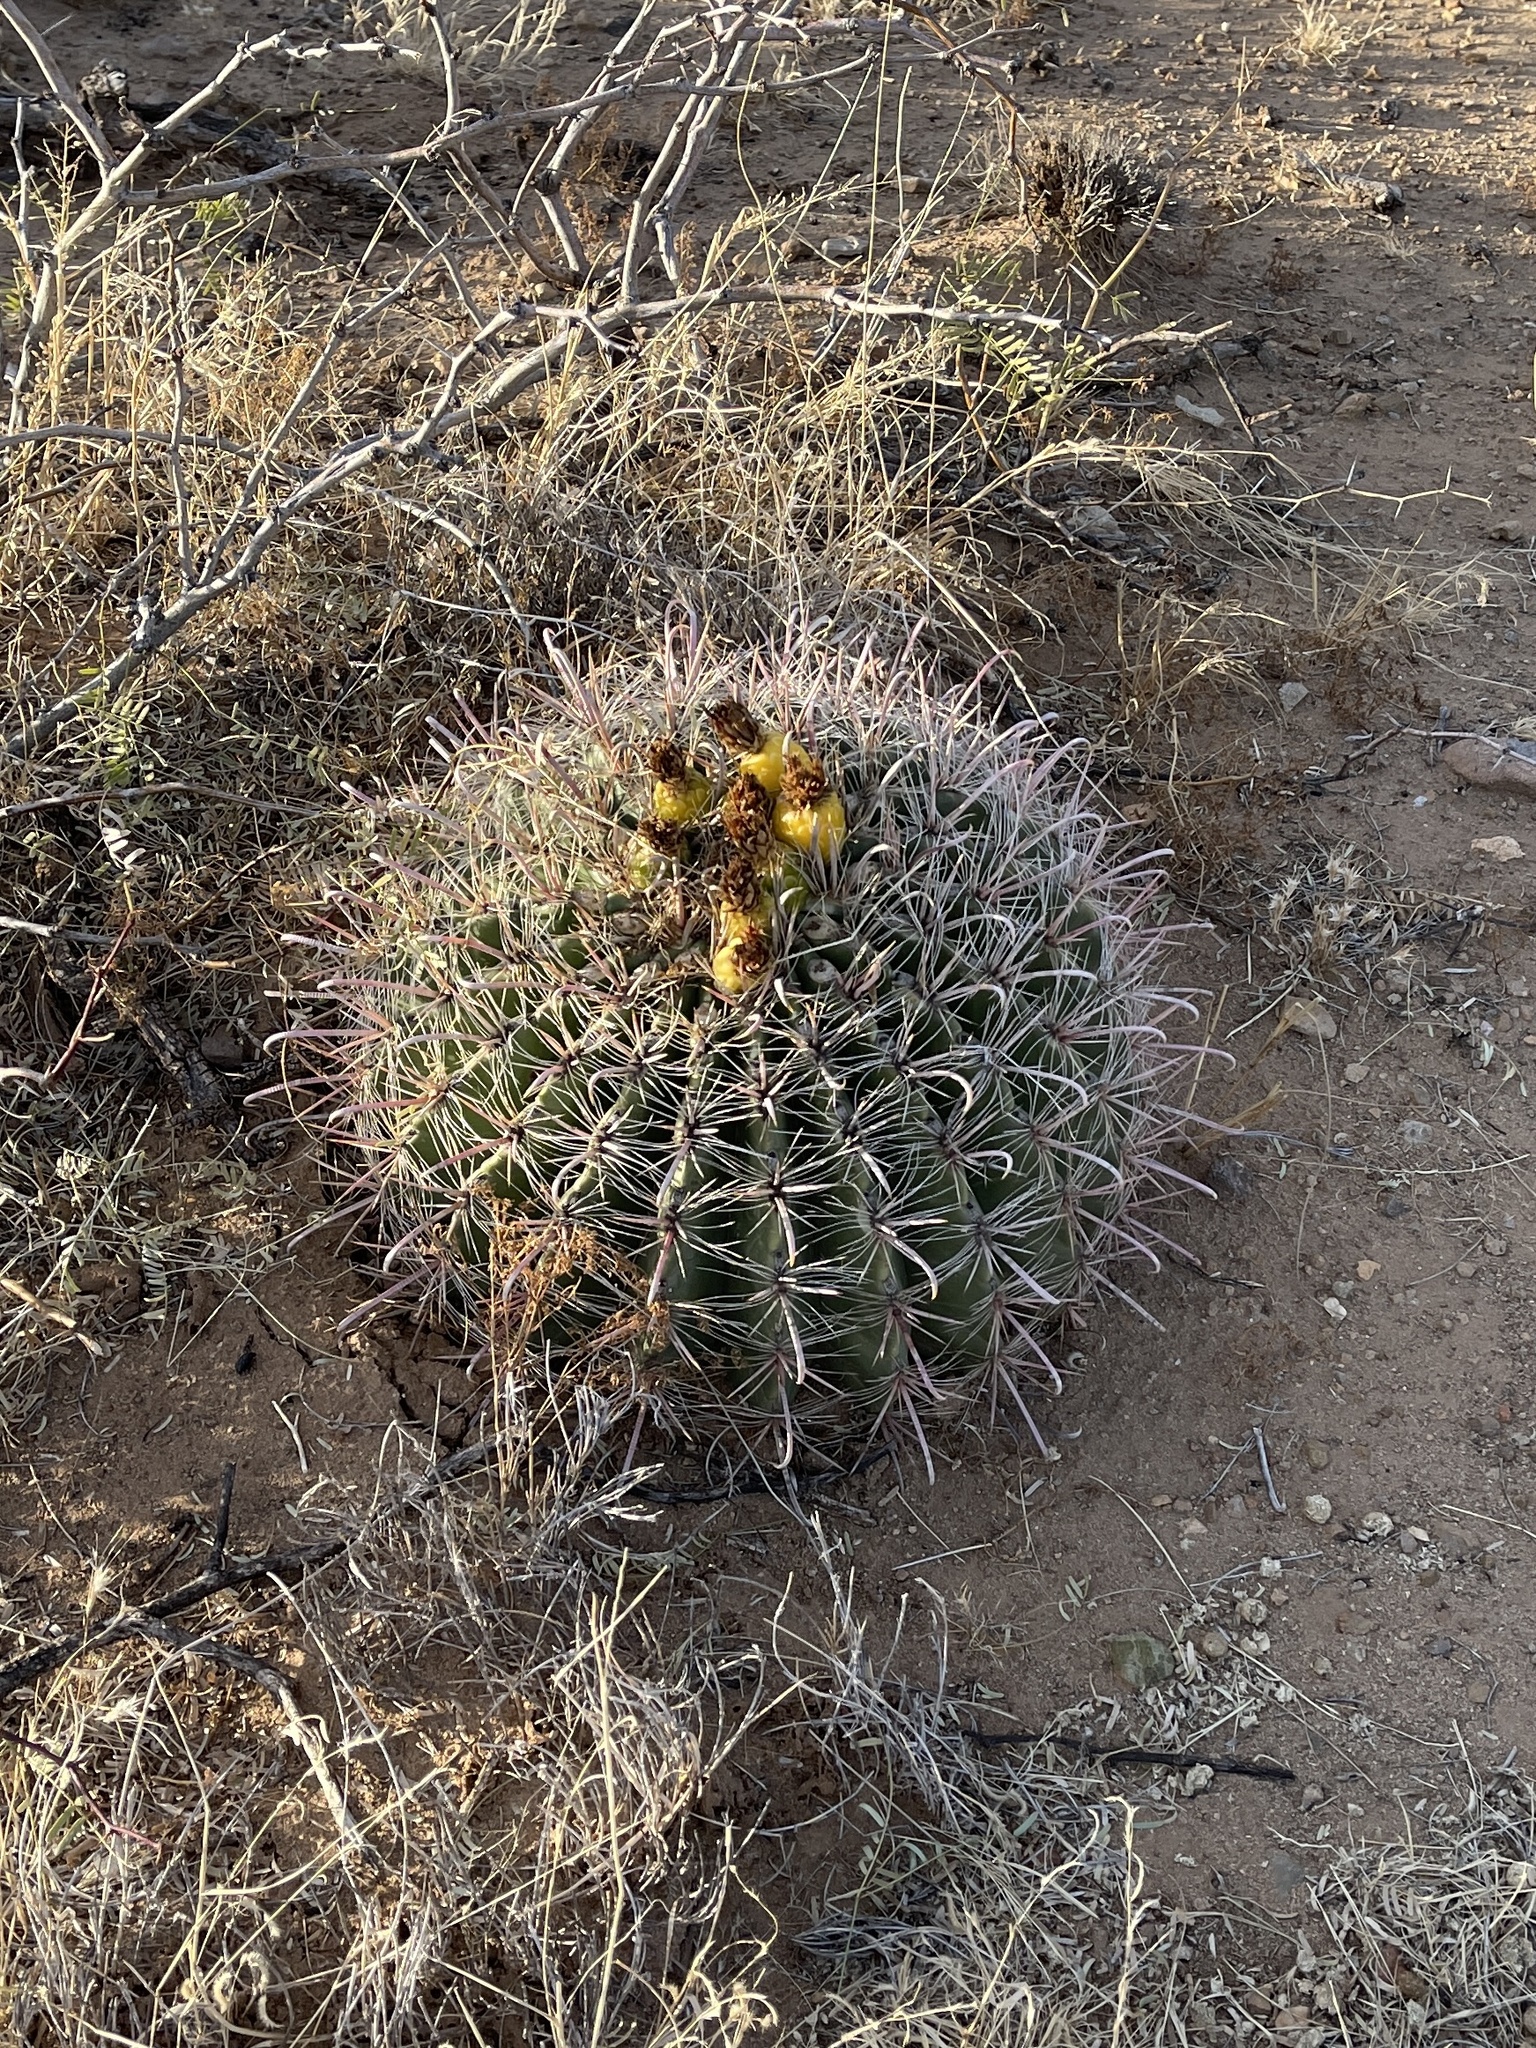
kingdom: Plantae
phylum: Tracheophyta
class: Magnoliopsida
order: Caryophyllales
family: Cactaceae
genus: Ferocactus
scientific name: Ferocactus wislizeni
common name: Candy barrel cactus
